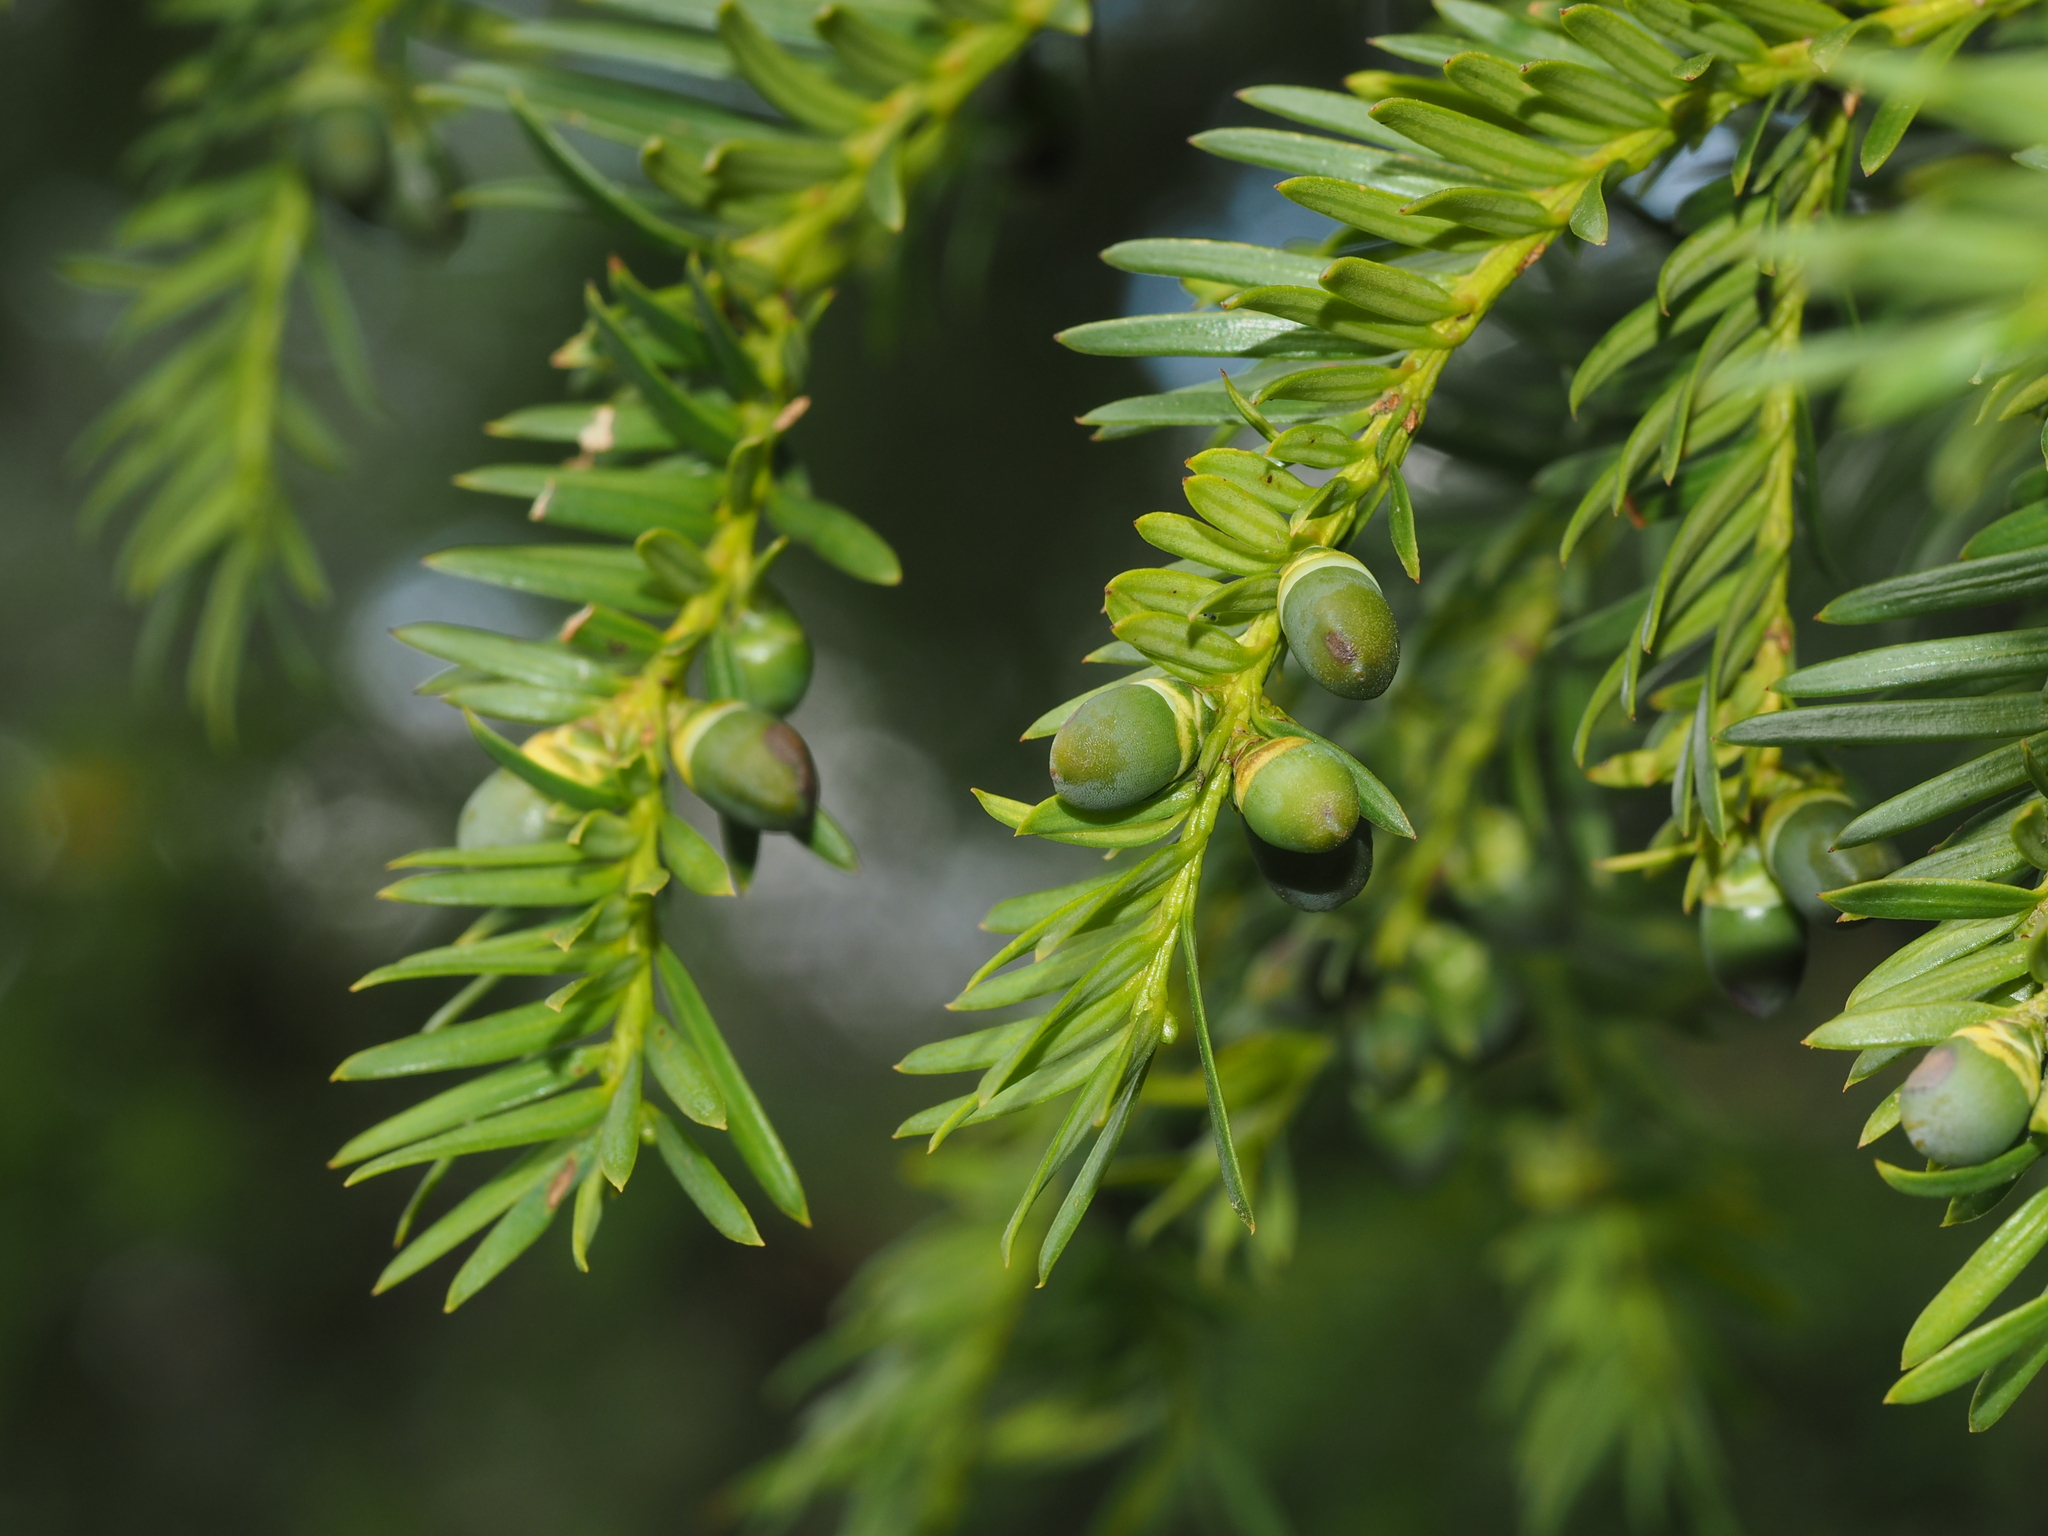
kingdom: Plantae
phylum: Tracheophyta
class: Pinopsida
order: Pinales
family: Taxaceae
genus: Taxus
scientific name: Taxus baccata
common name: Yew
